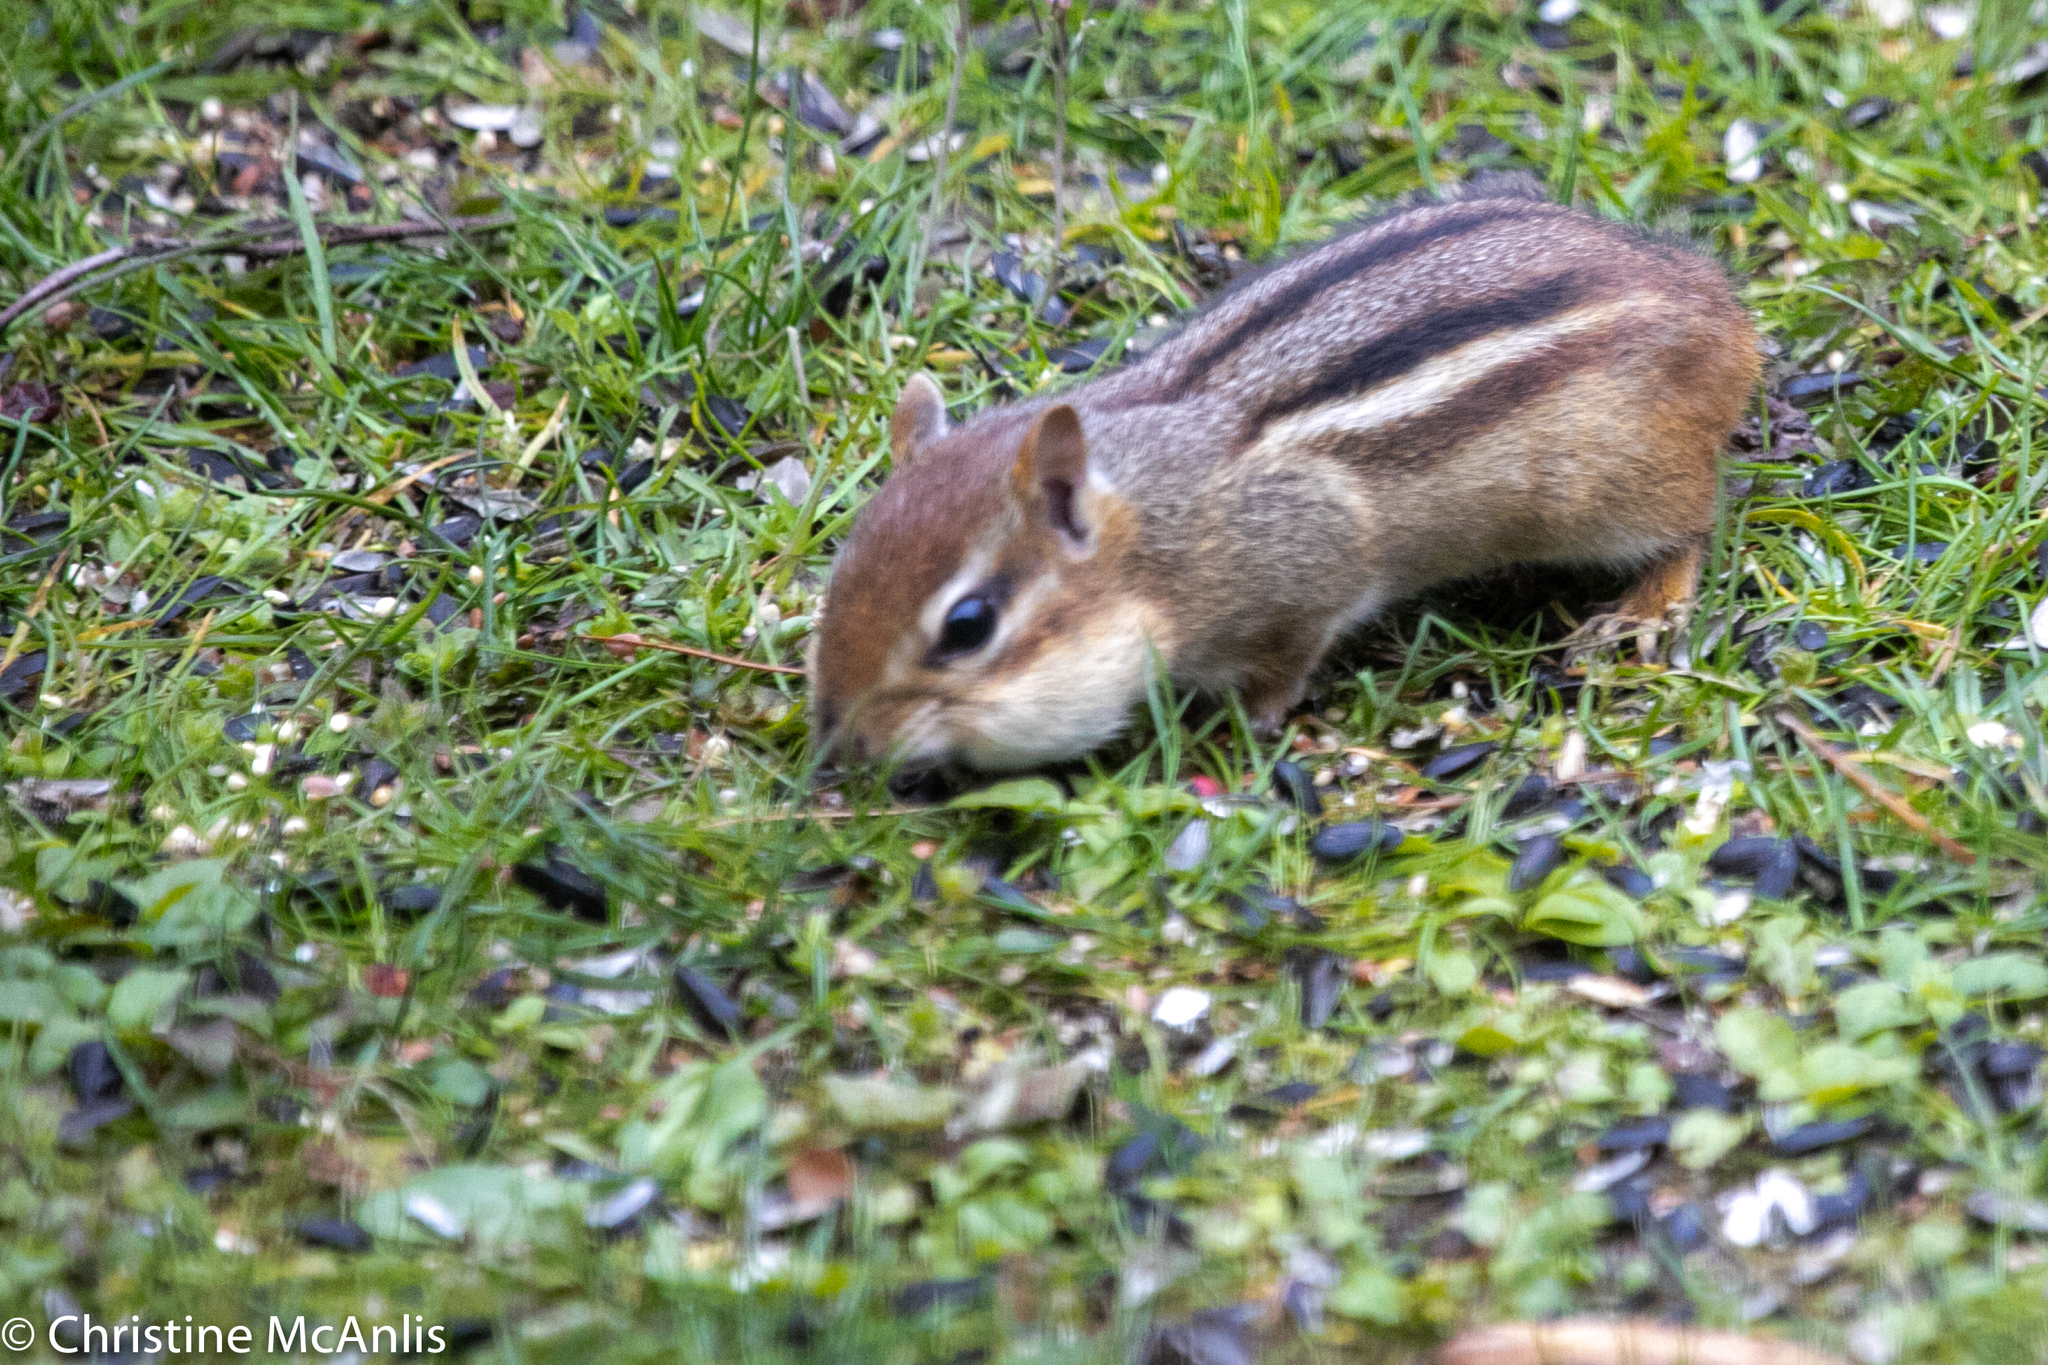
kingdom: Animalia
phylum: Chordata
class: Mammalia
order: Rodentia
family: Sciuridae
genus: Tamias
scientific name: Tamias striatus
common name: Eastern chipmunk
